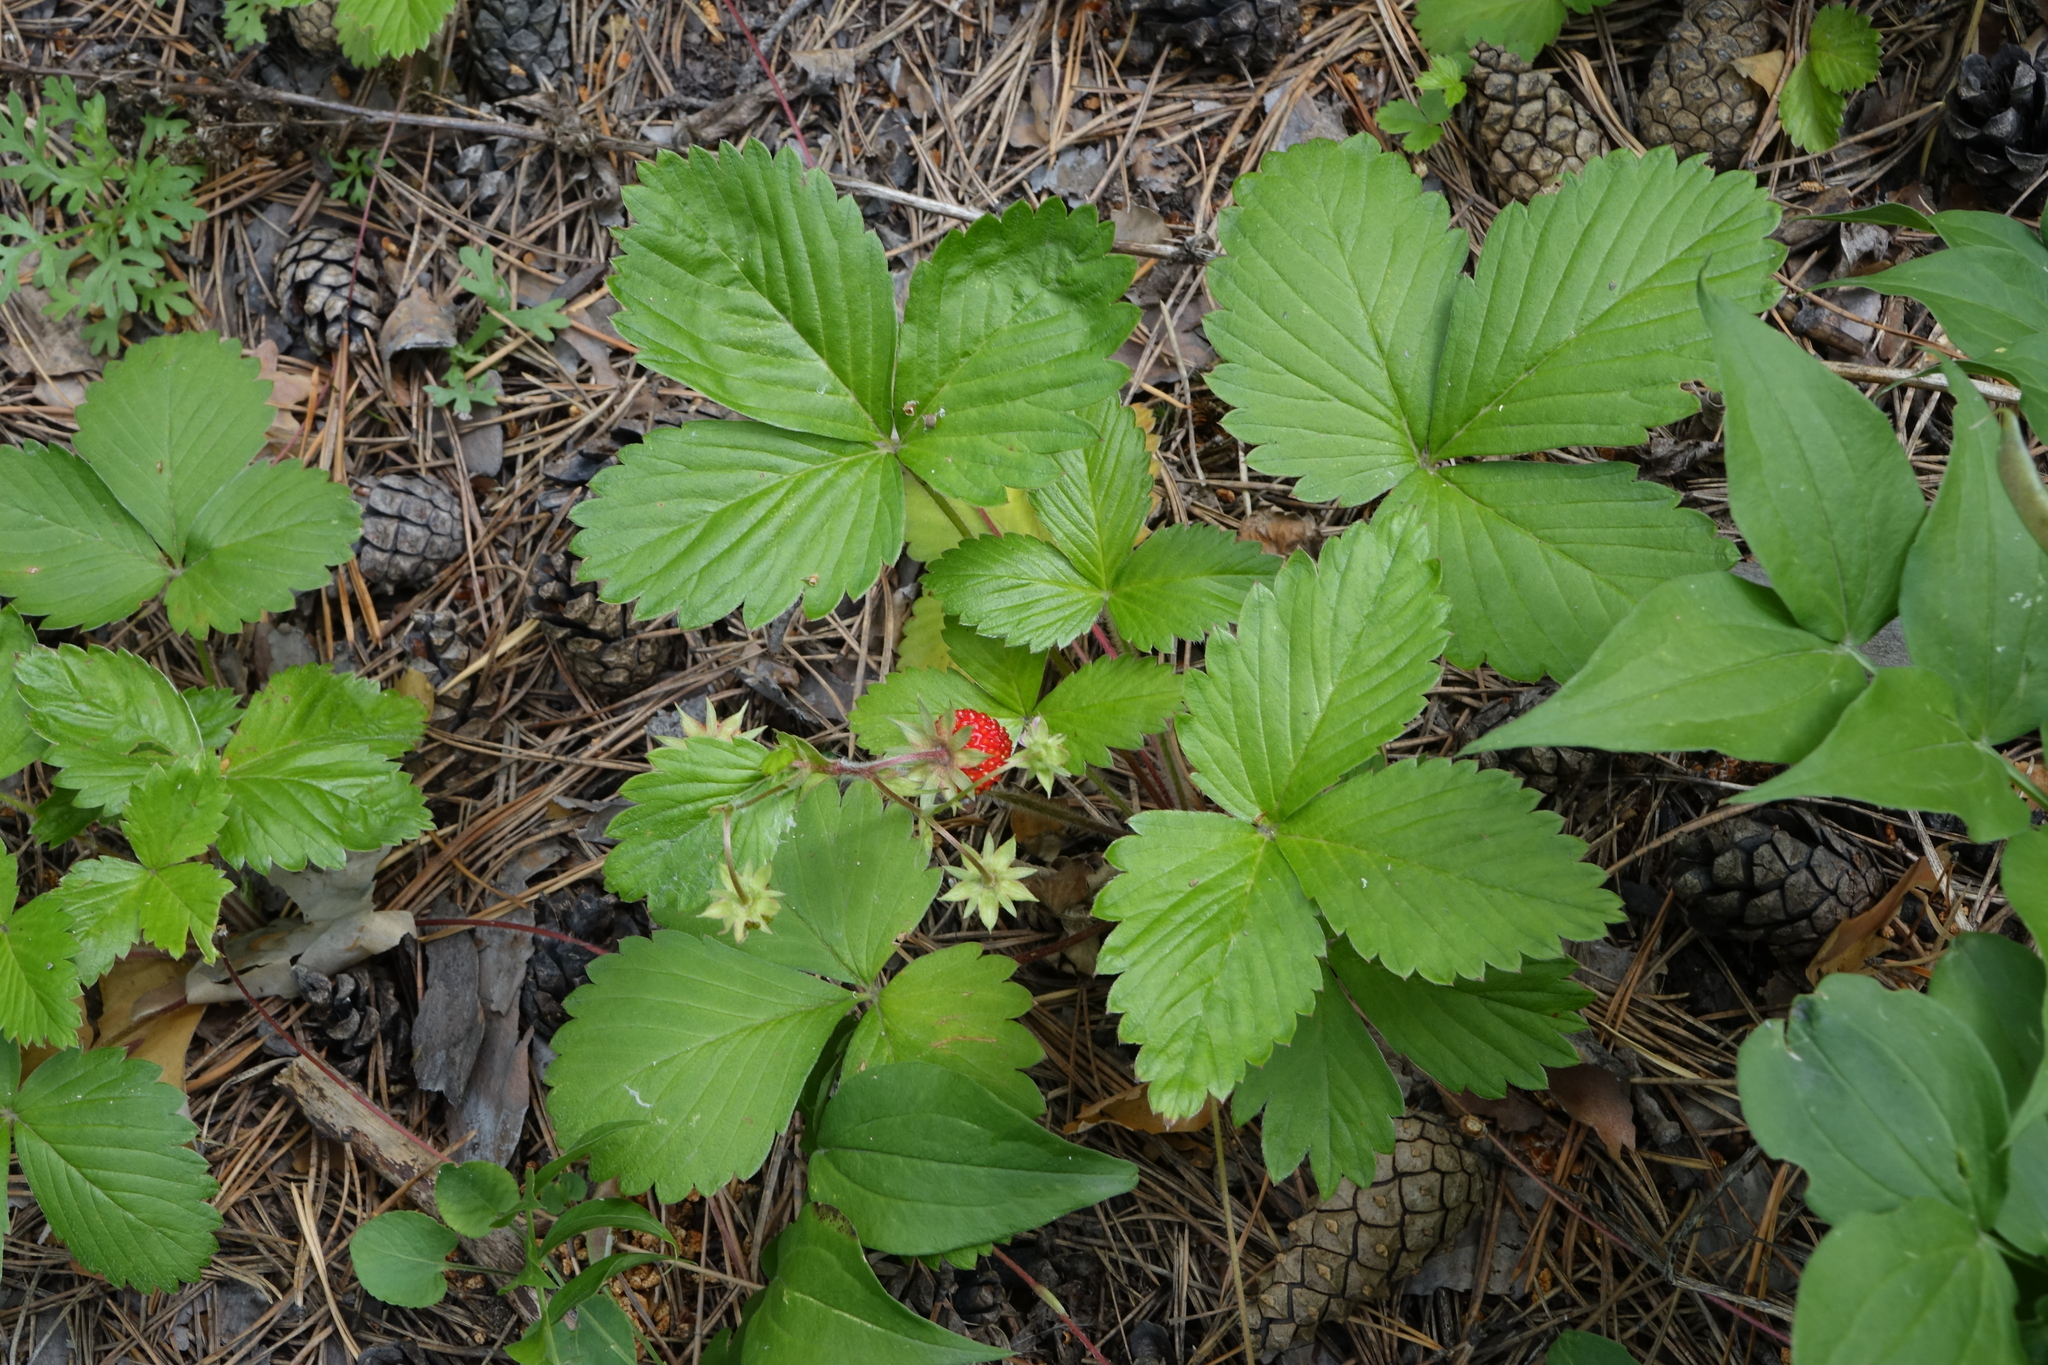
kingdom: Plantae
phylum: Tracheophyta
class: Magnoliopsida
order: Rosales
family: Rosaceae
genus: Fragaria
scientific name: Fragaria vesca
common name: Wild strawberry
